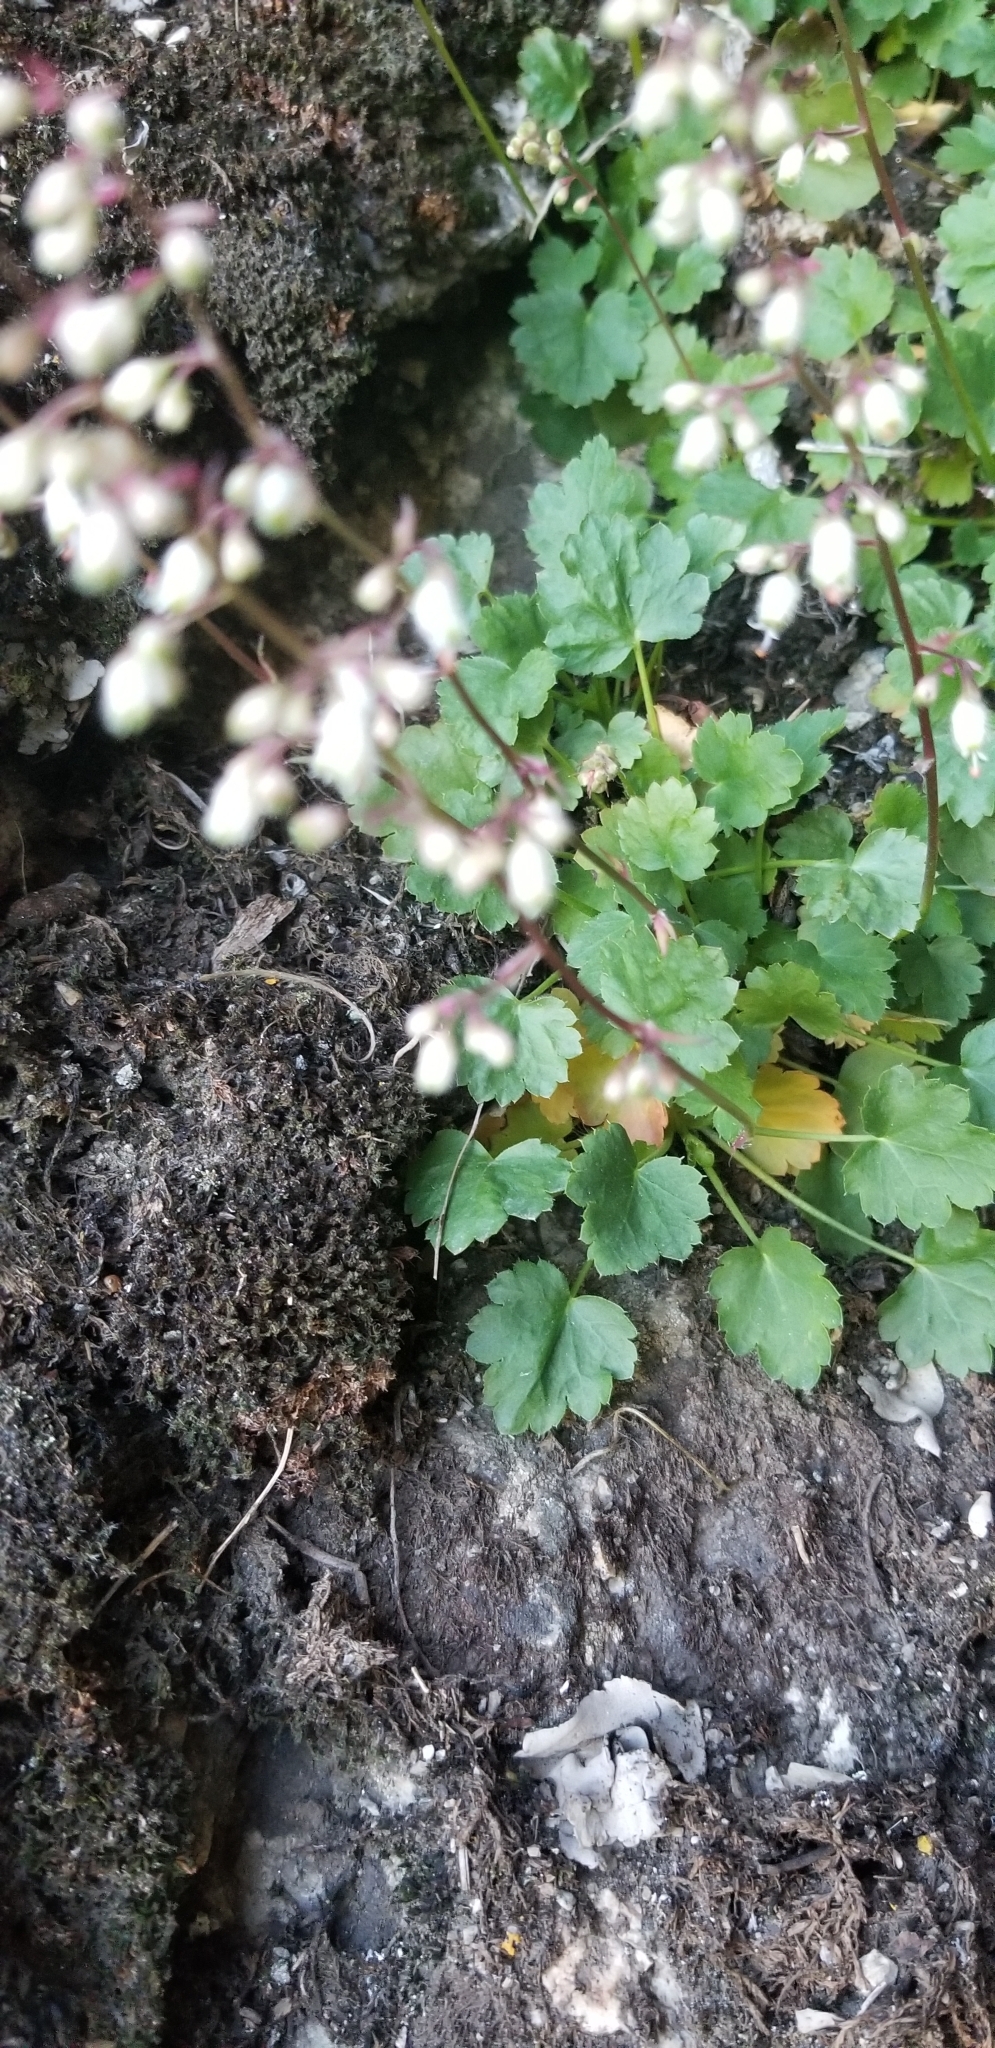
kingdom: Plantae
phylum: Tracheophyta
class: Magnoliopsida
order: Saxifragales
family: Saxifragaceae
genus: Heuchera
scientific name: Heuchera rubescens
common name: Jack-o'the-rocks
